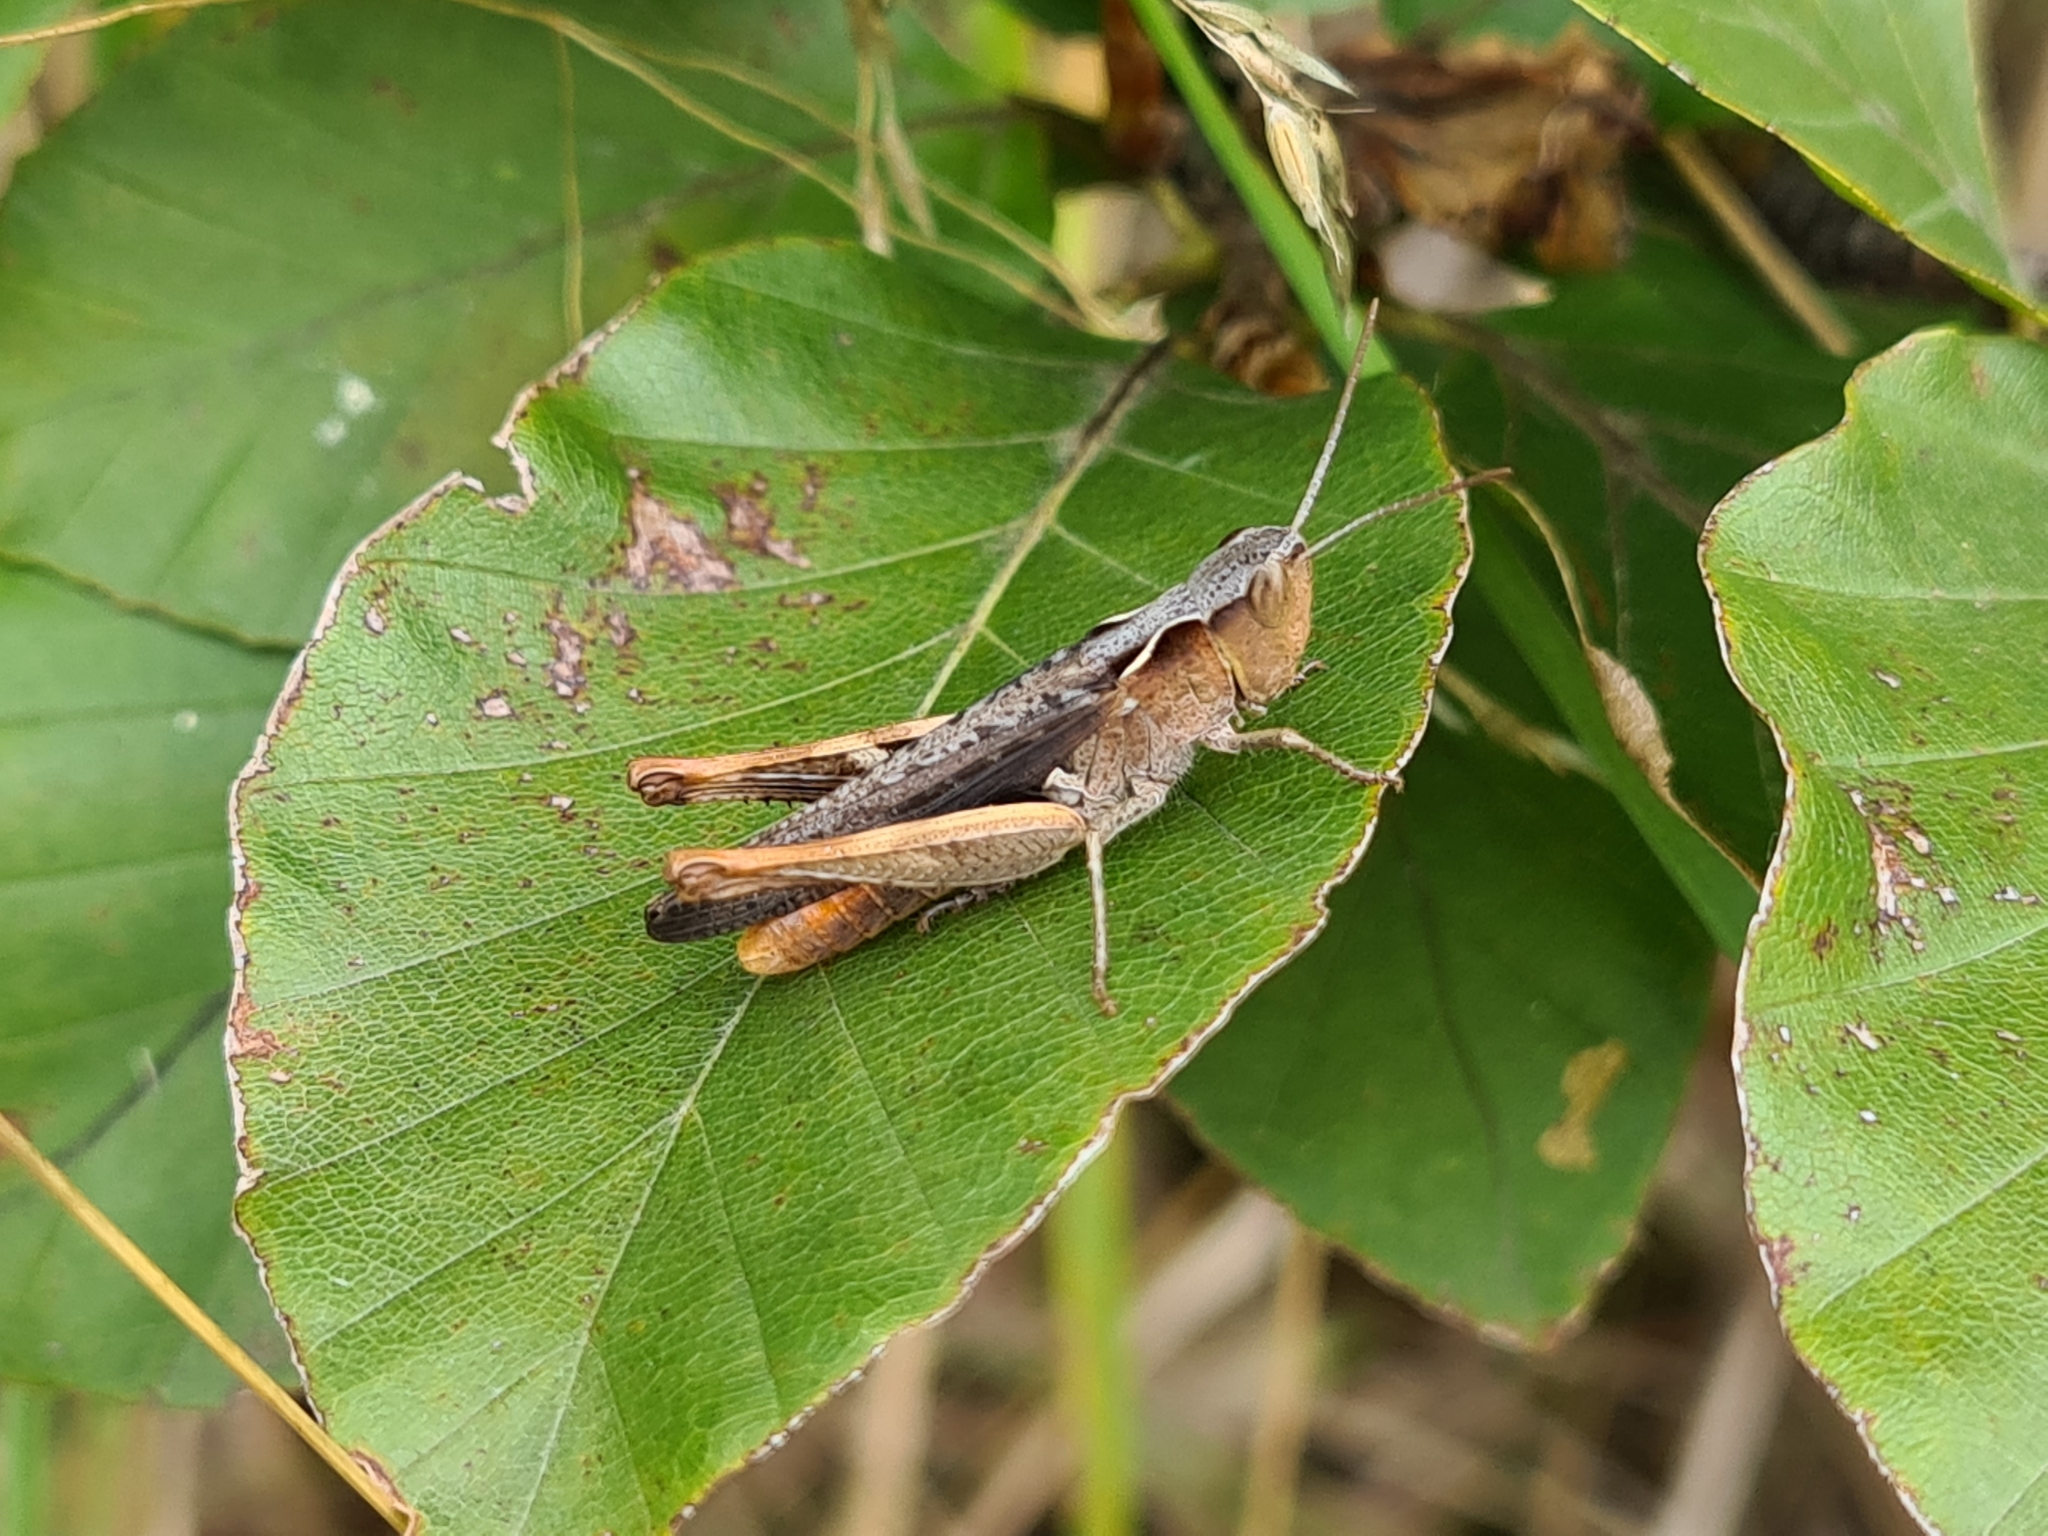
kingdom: Animalia
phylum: Arthropoda
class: Insecta
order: Orthoptera
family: Acrididae
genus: Chorthippus
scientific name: Chorthippus vagans
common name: Heath grasshopper
